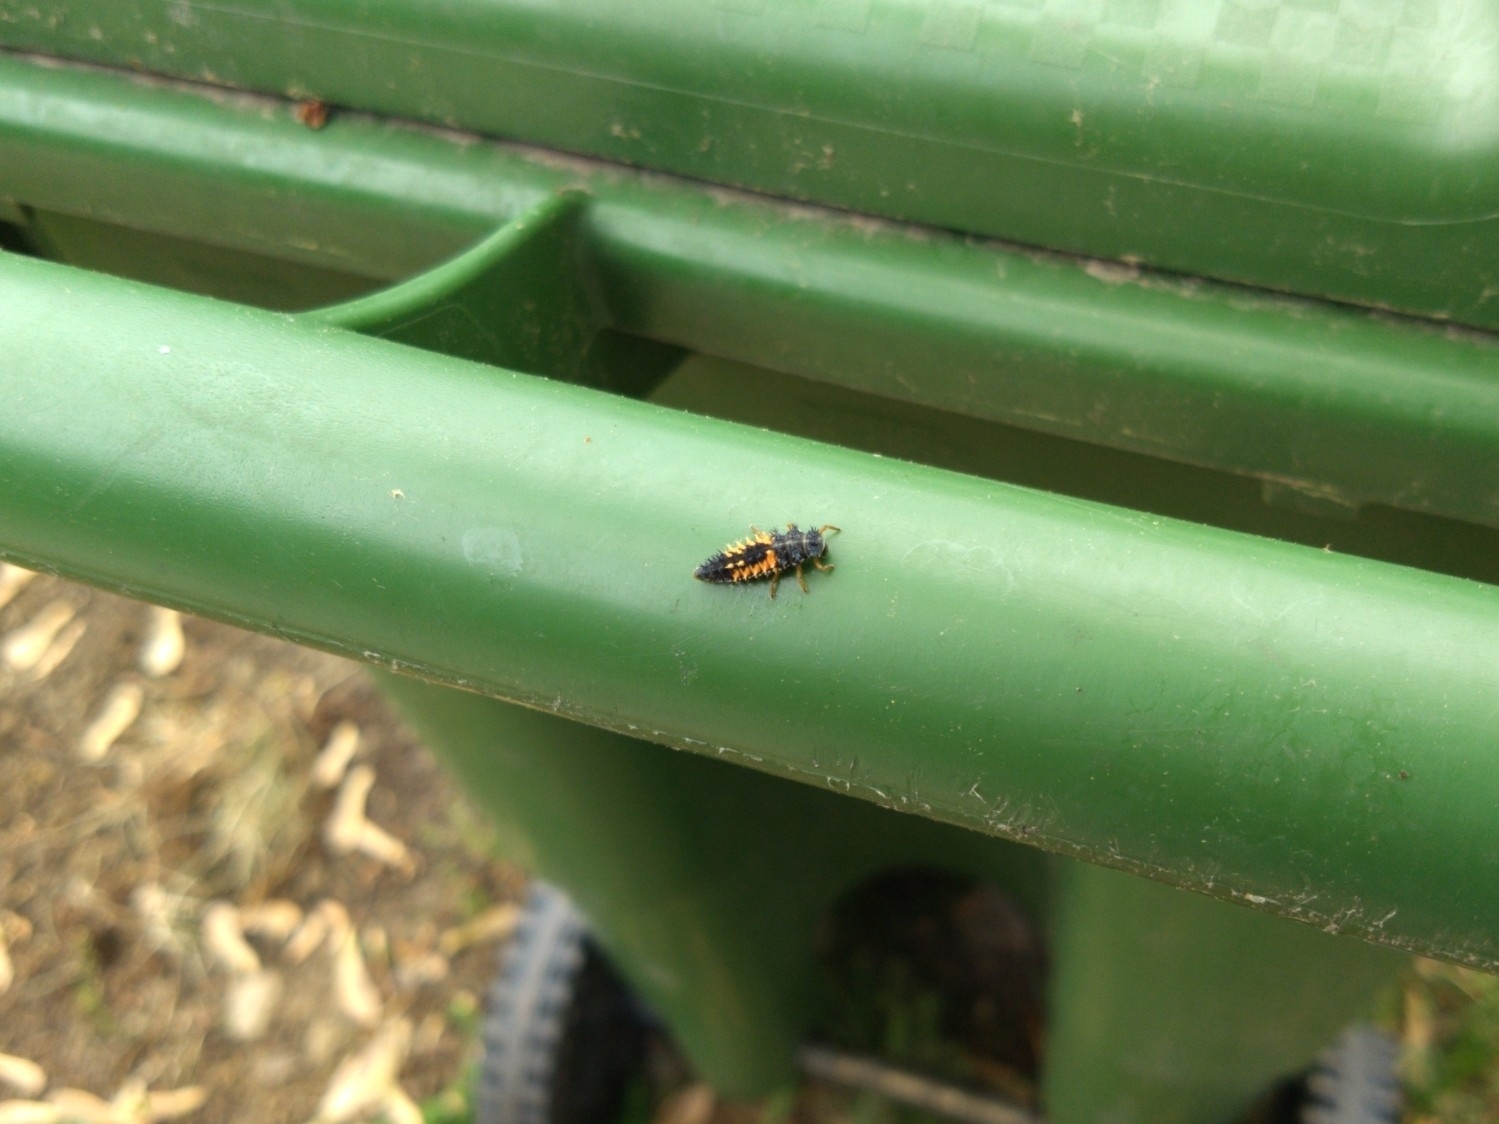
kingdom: Animalia
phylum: Arthropoda
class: Insecta
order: Coleoptera
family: Coccinellidae
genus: Harmonia
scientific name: Harmonia axyridis
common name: Harlequin ladybird
